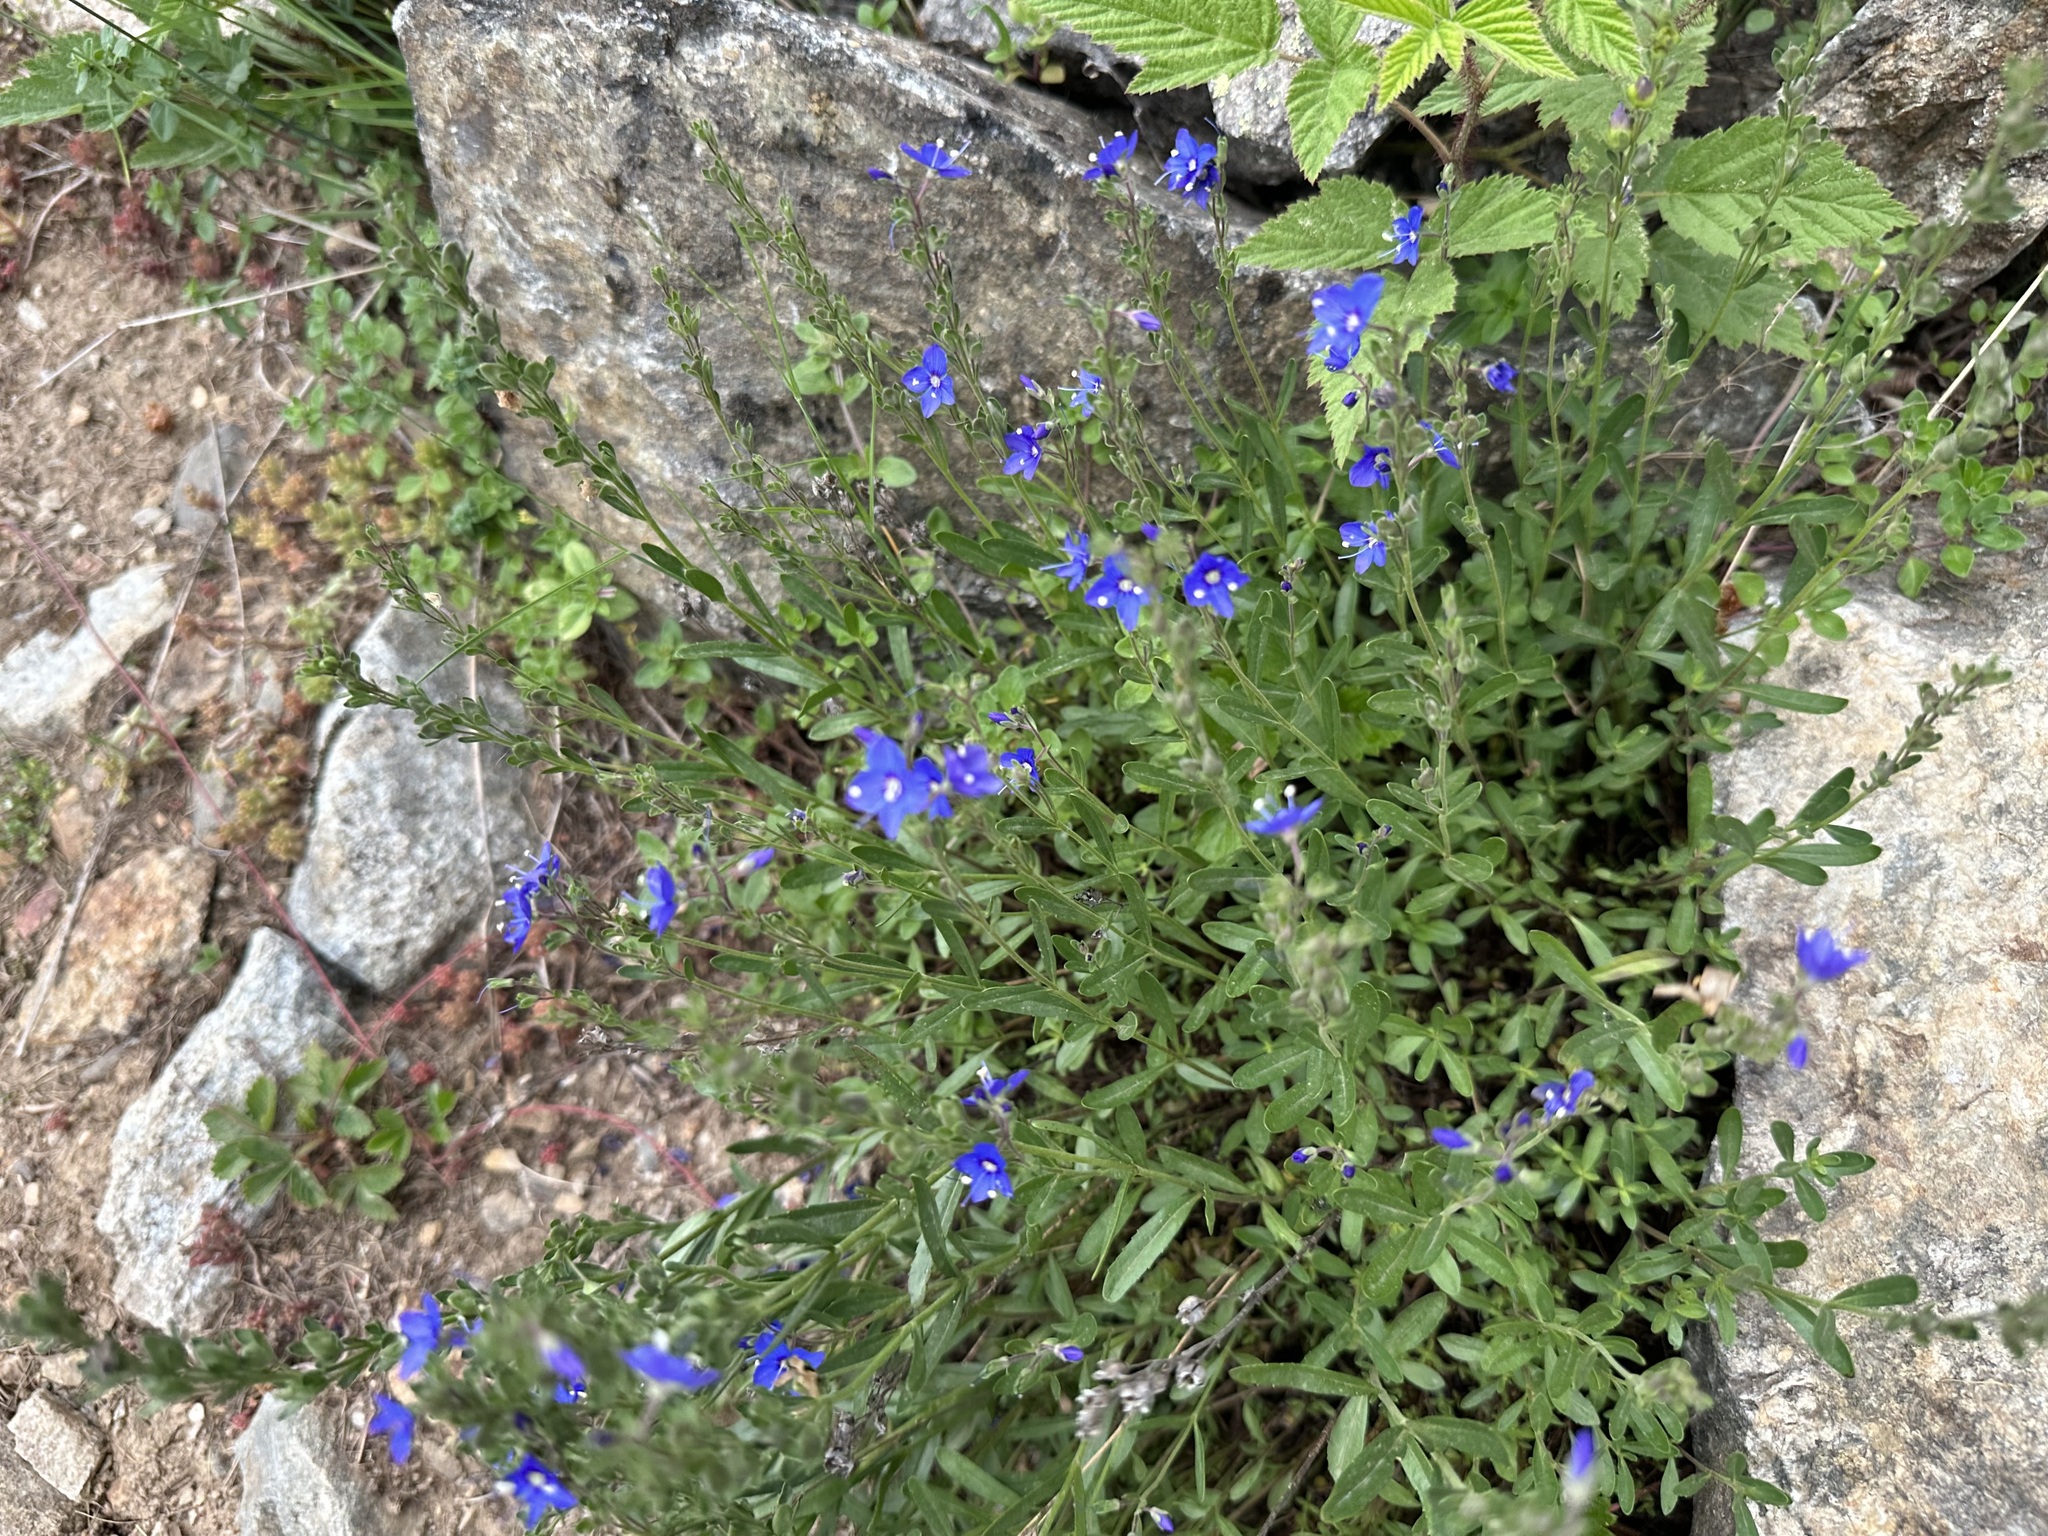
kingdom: Plantae
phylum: Tracheophyta
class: Magnoliopsida
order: Lamiales
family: Plantaginaceae
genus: Veronica
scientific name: Veronica fruticans
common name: Rock speedwell
